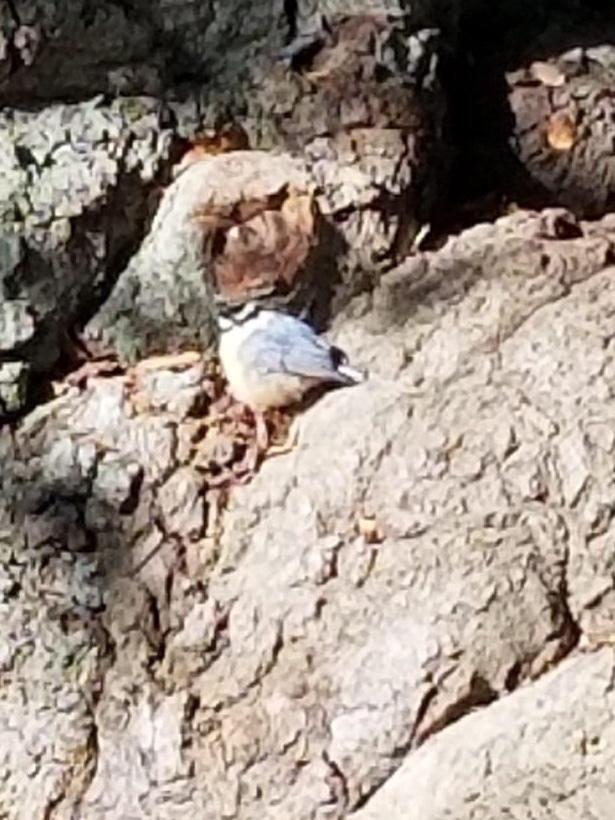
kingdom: Animalia
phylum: Chordata
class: Aves
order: Passeriformes
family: Sittidae
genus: Sitta
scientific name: Sitta canadensis
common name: Red-breasted nuthatch
